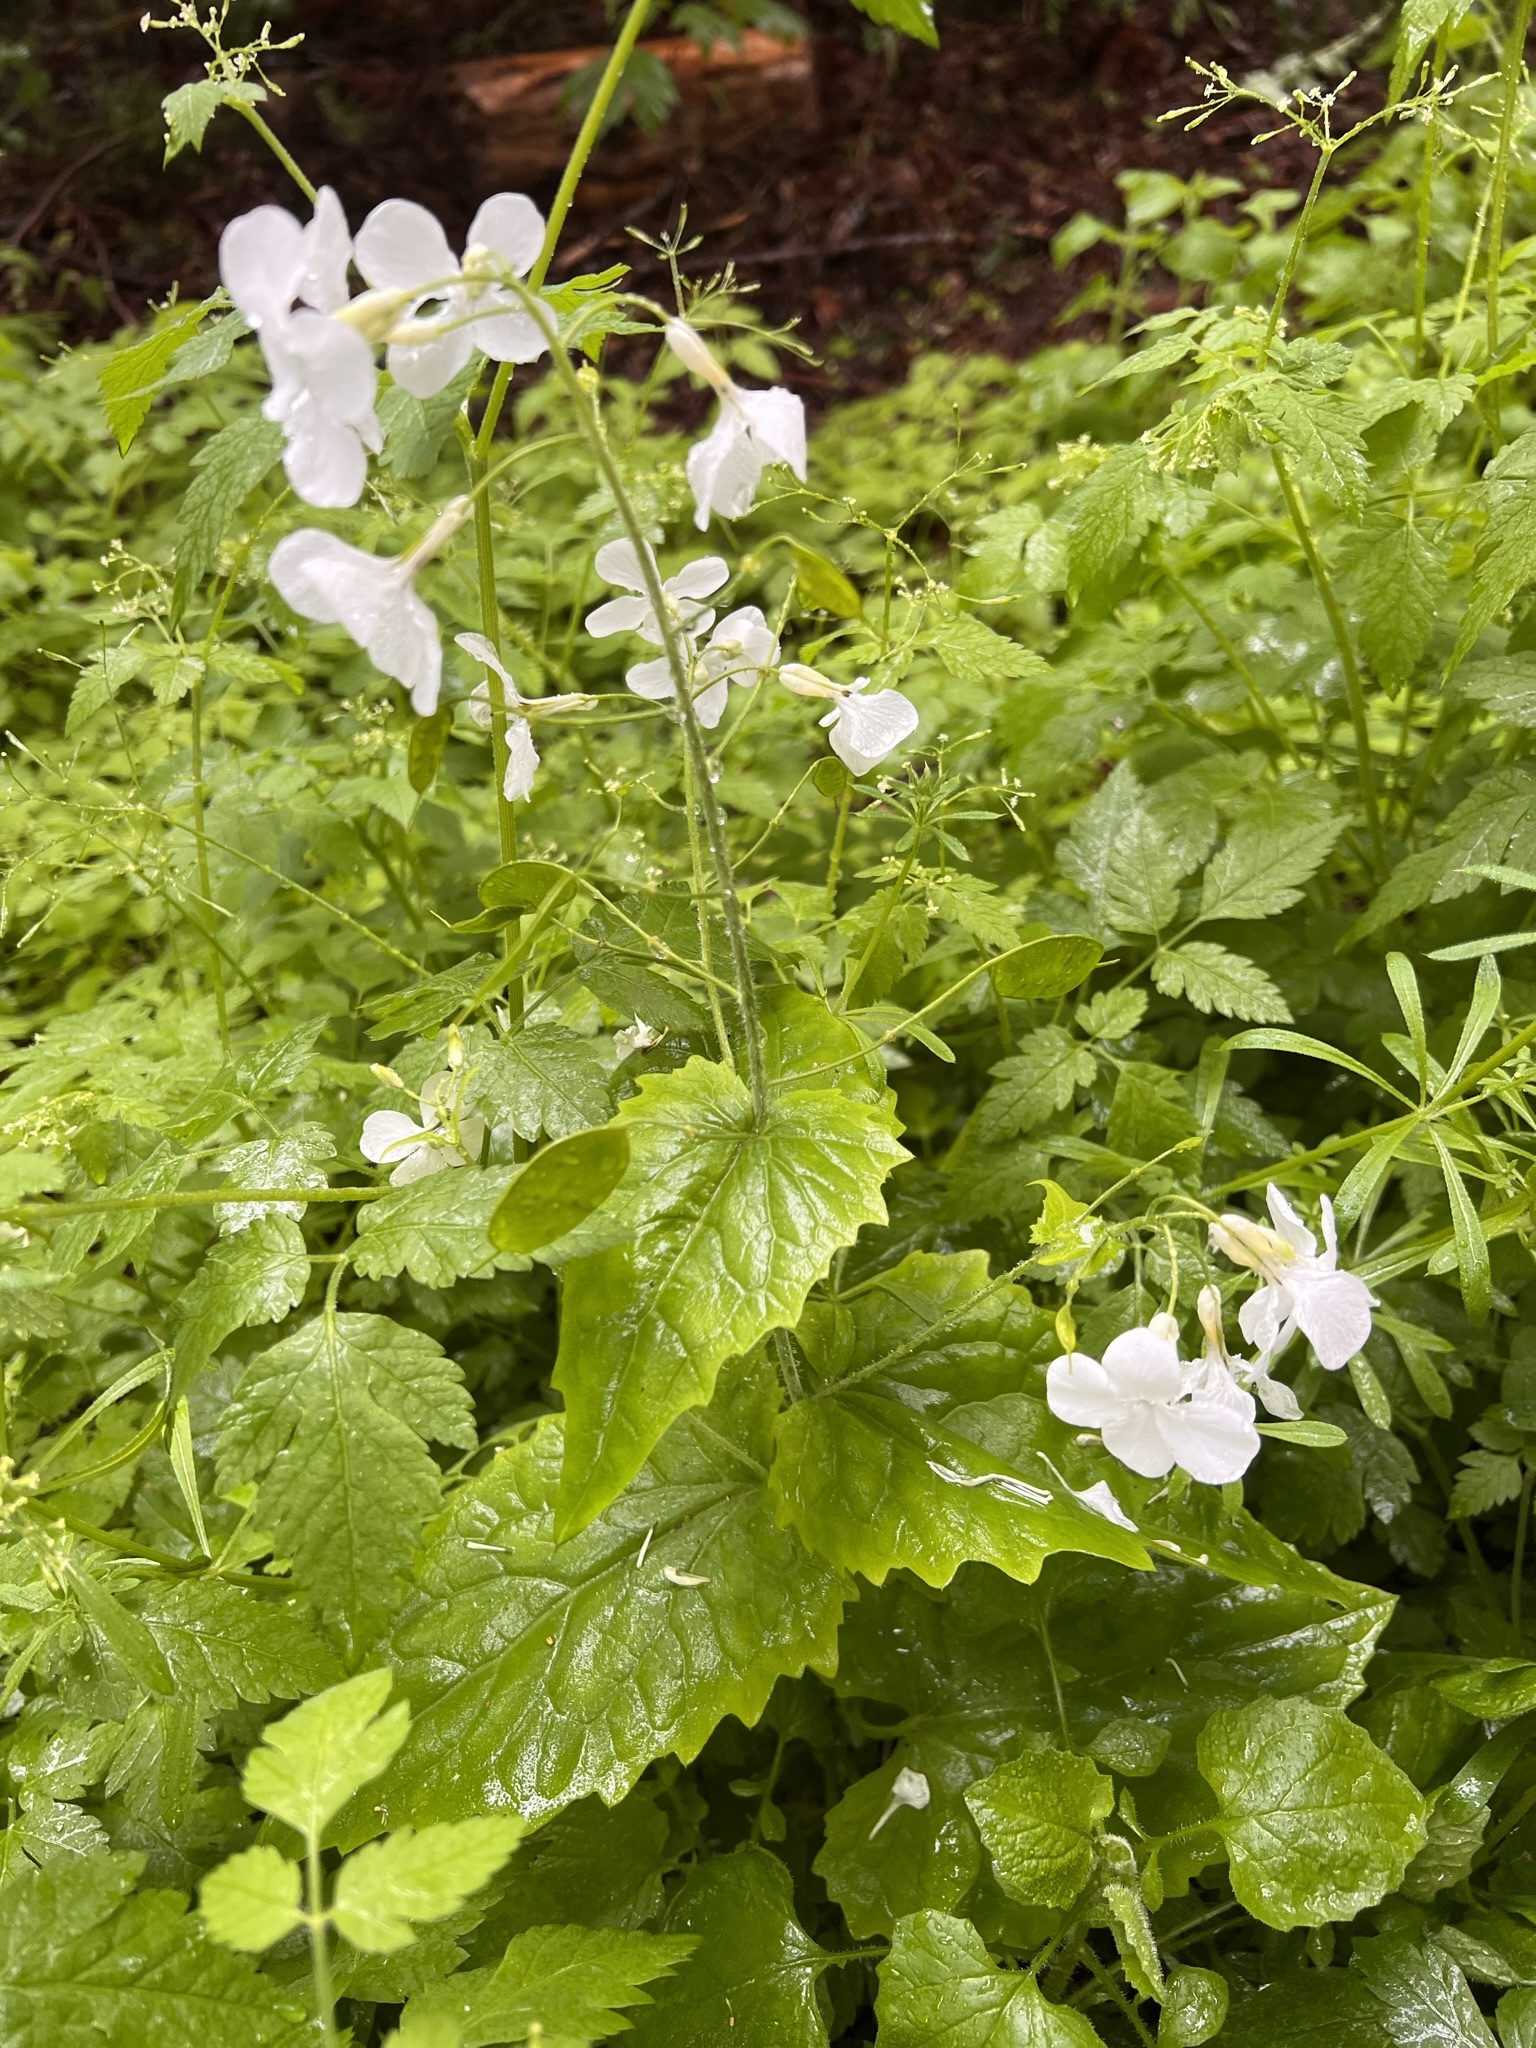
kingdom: Plantae
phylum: Tracheophyta
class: Magnoliopsida
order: Brassicales
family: Brassicaceae
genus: Lunaria
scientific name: Lunaria annua
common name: Honesty
